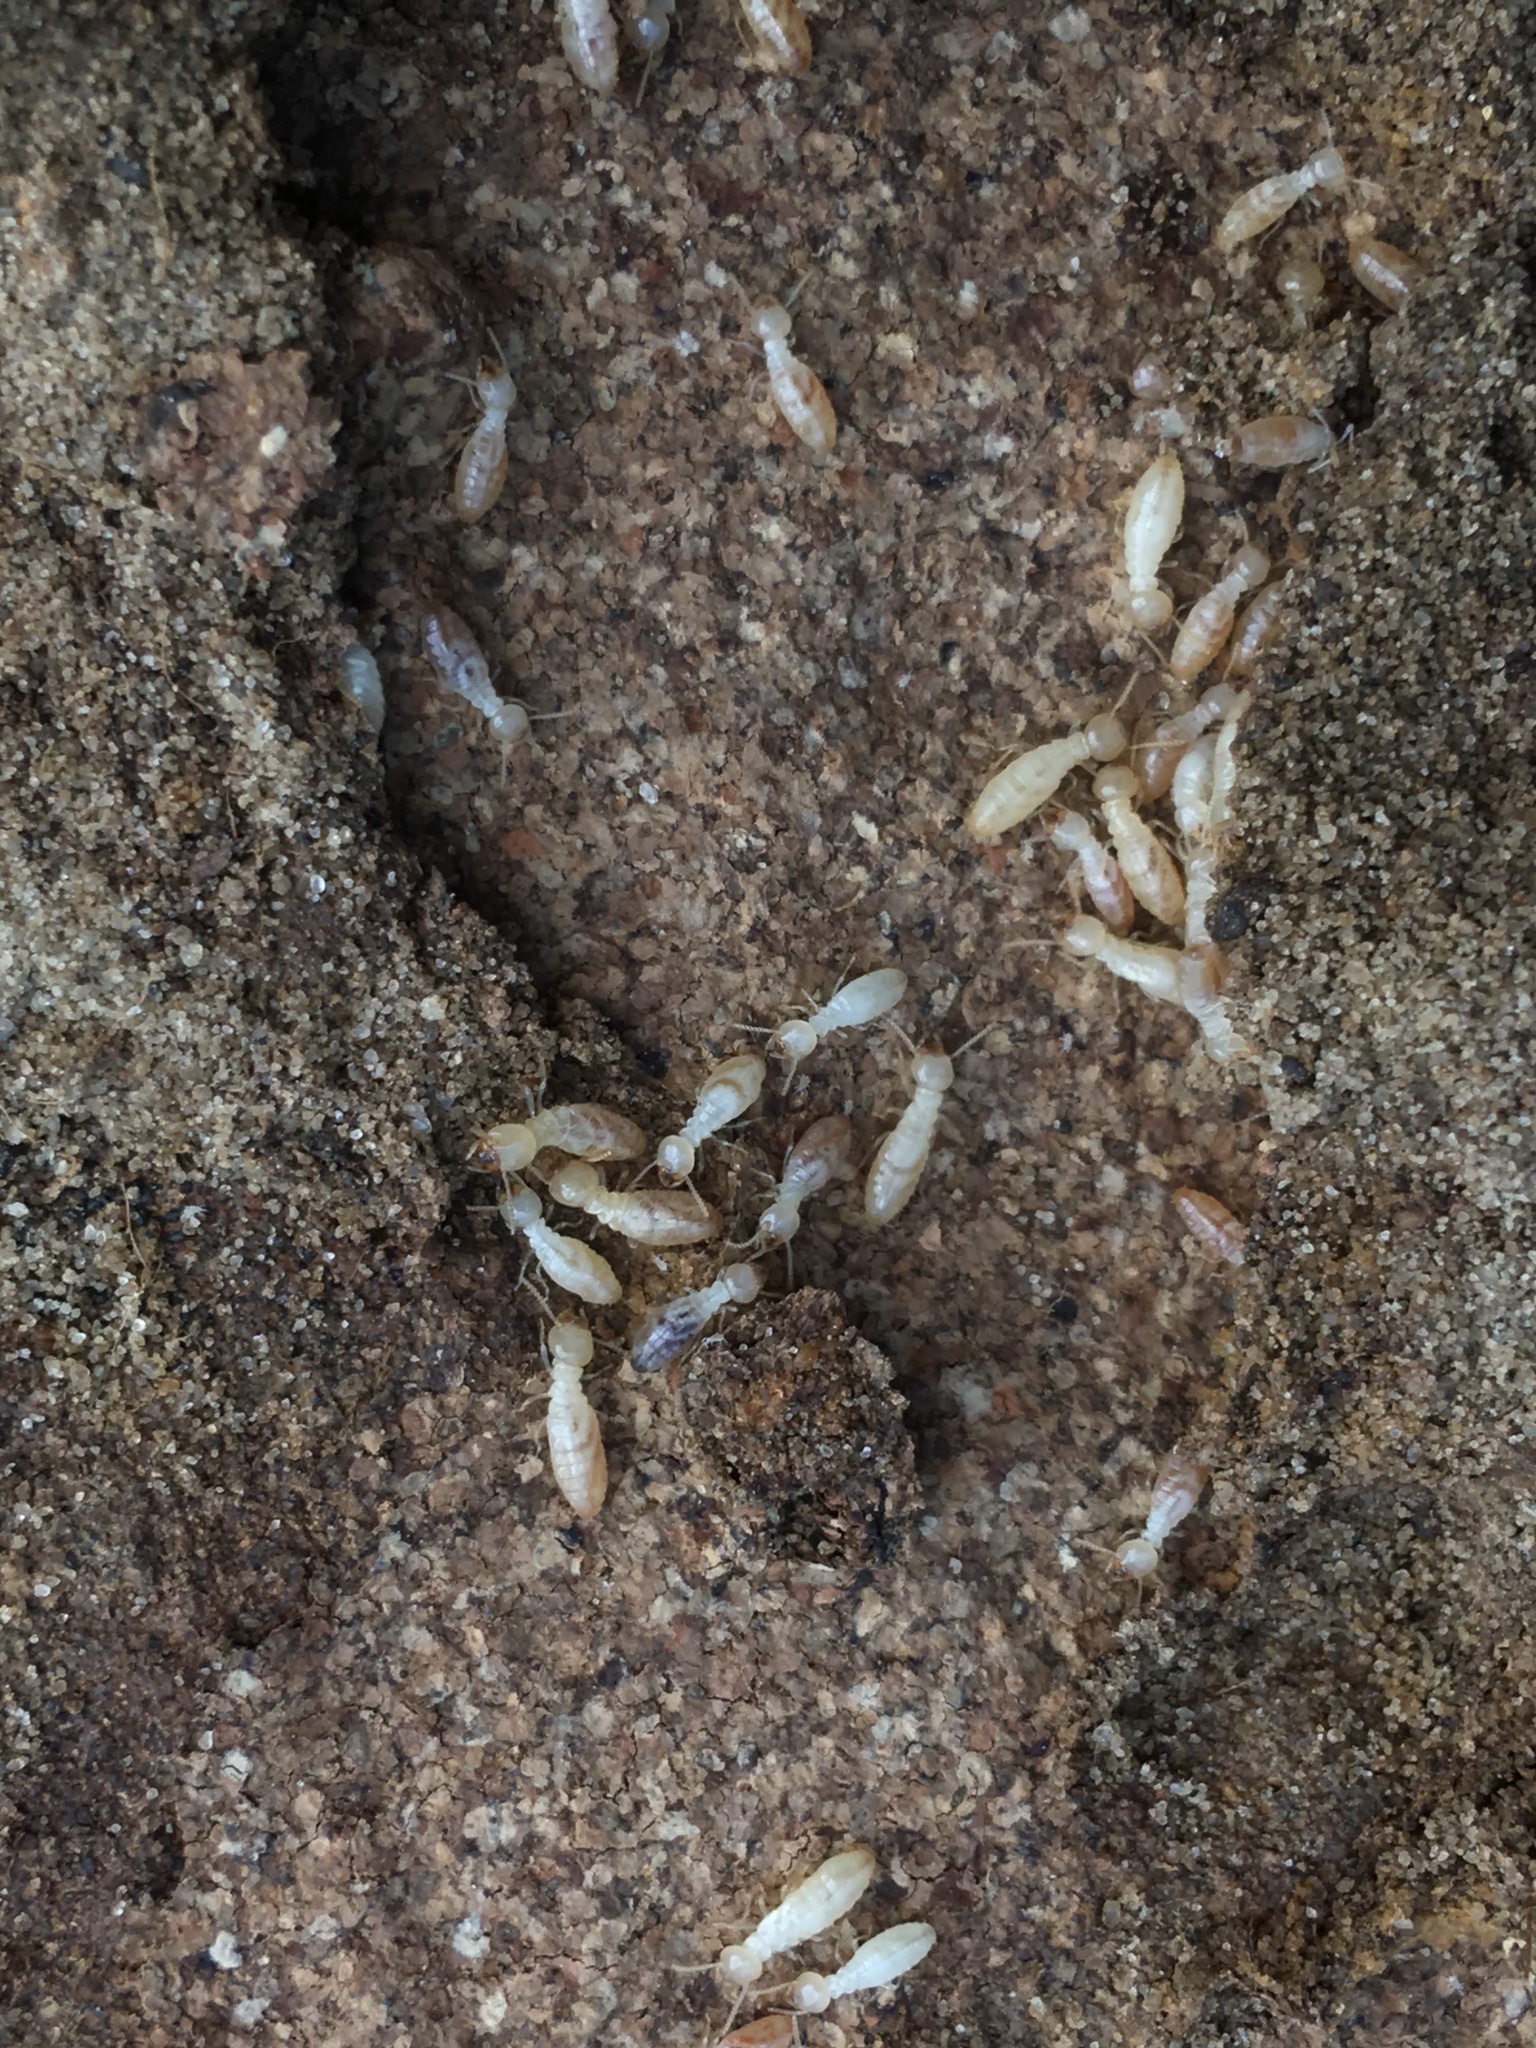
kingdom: Animalia
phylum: Arthropoda
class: Insecta
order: Blattodea
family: Rhinotermitidae
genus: Reticulitermes
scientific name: Reticulitermes lucifugus
